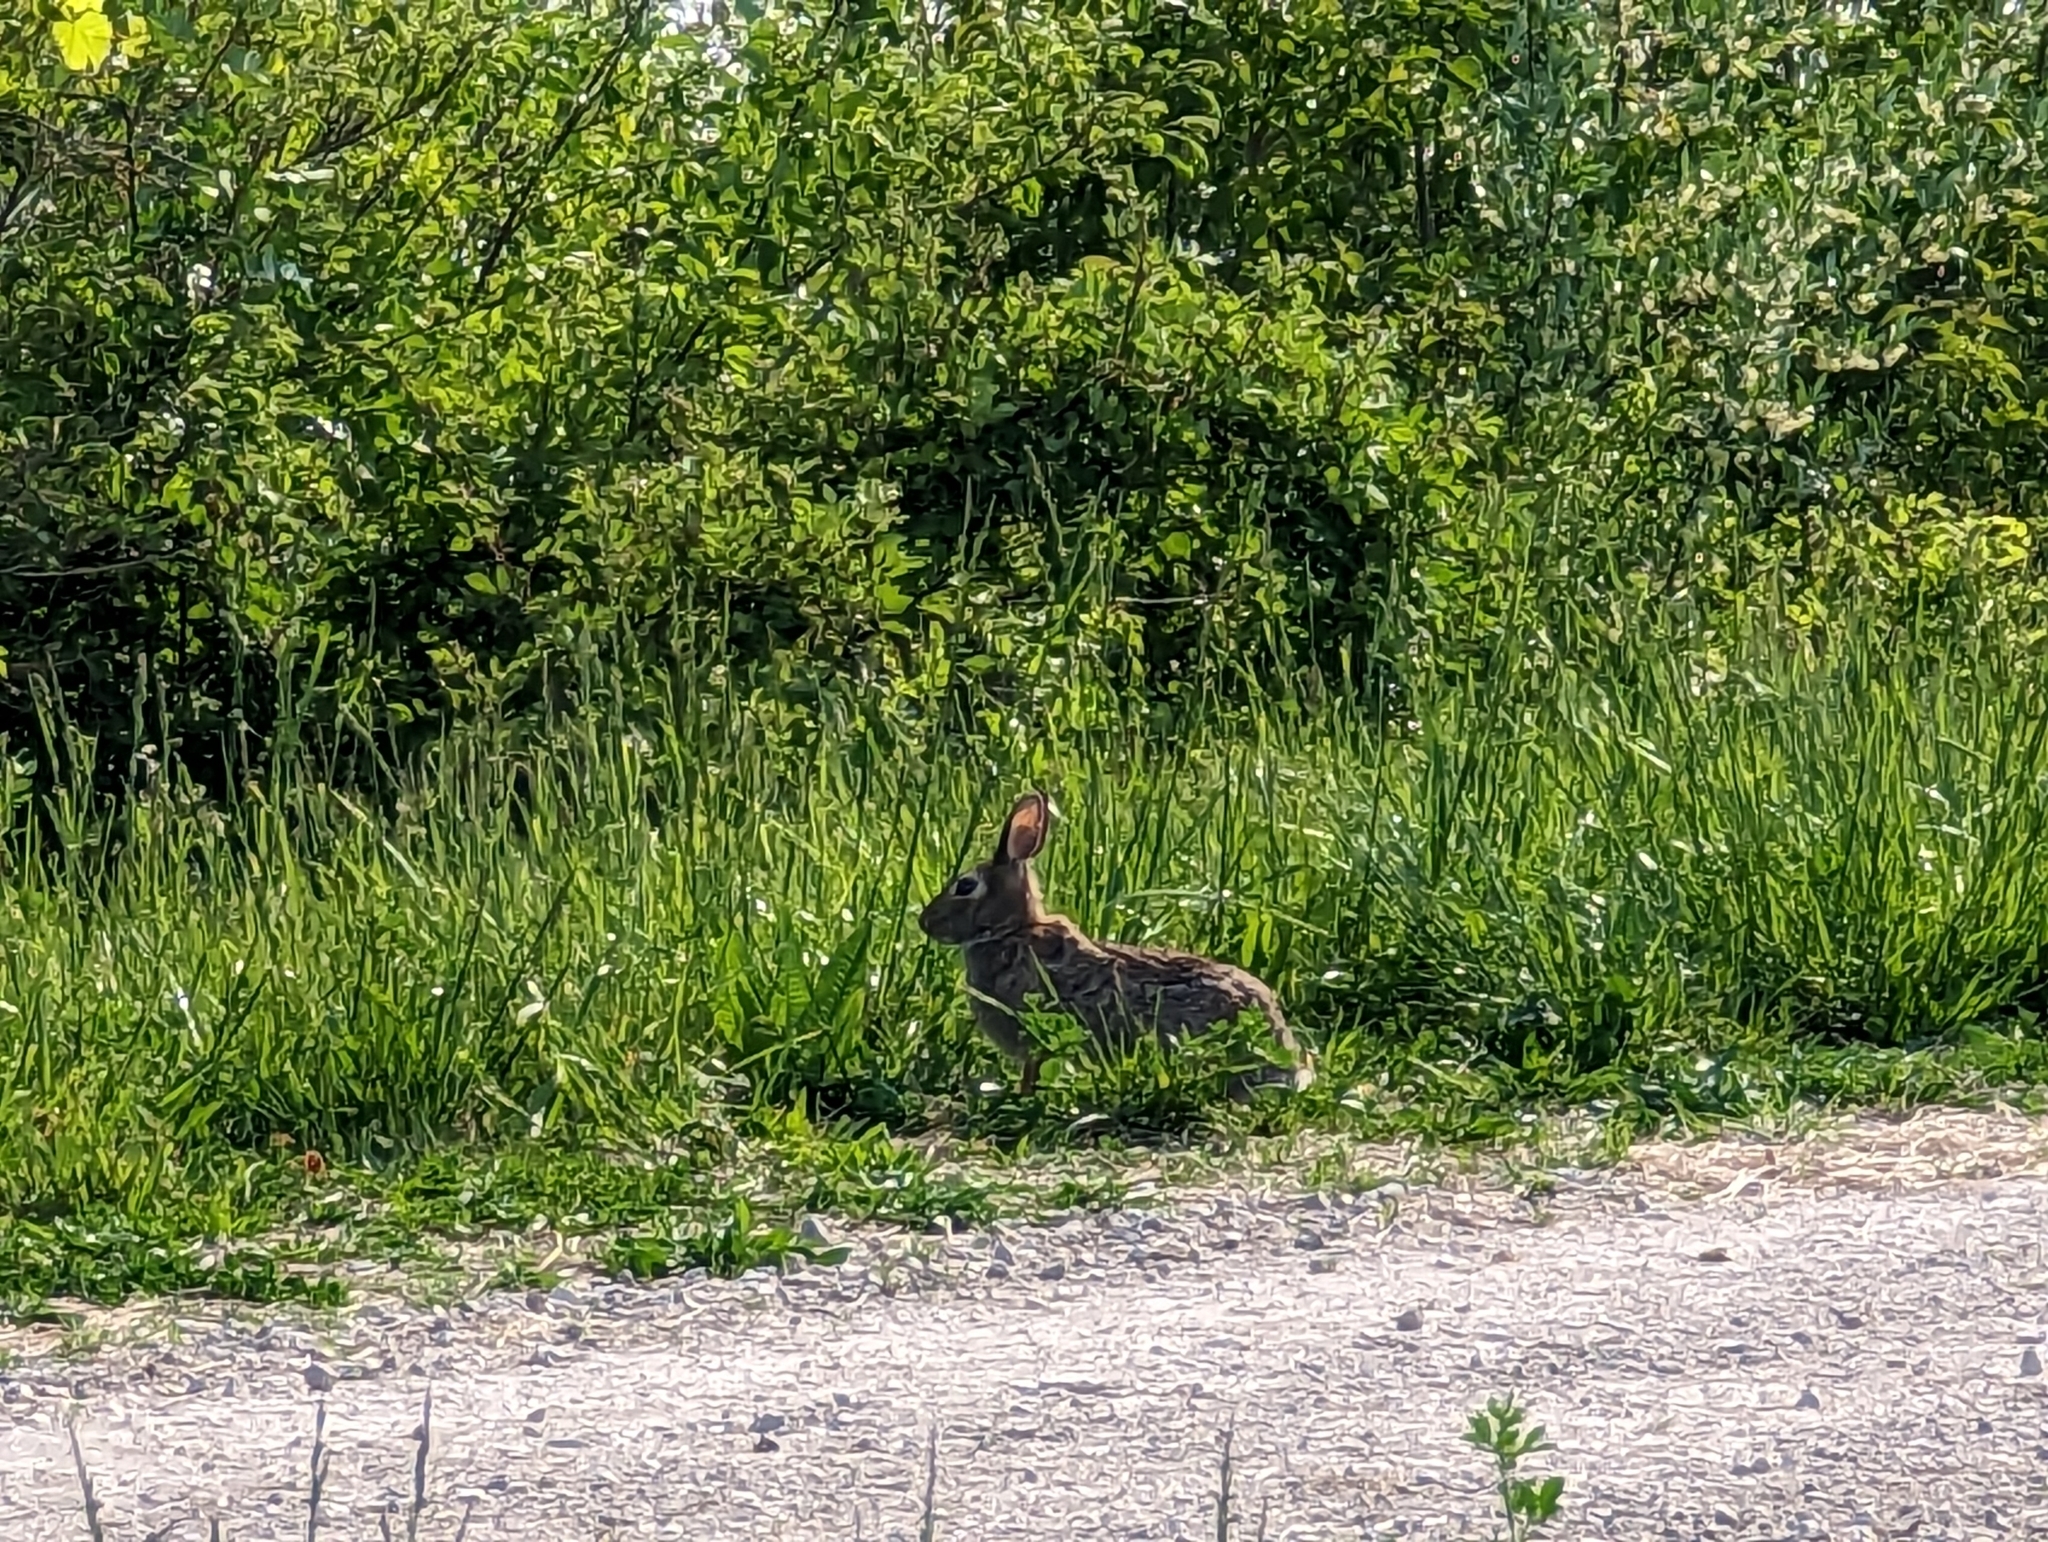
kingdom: Animalia
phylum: Chordata
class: Mammalia
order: Lagomorpha
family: Leporidae
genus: Sylvilagus
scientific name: Sylvilagus floridanus
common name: Eastern cottontail
